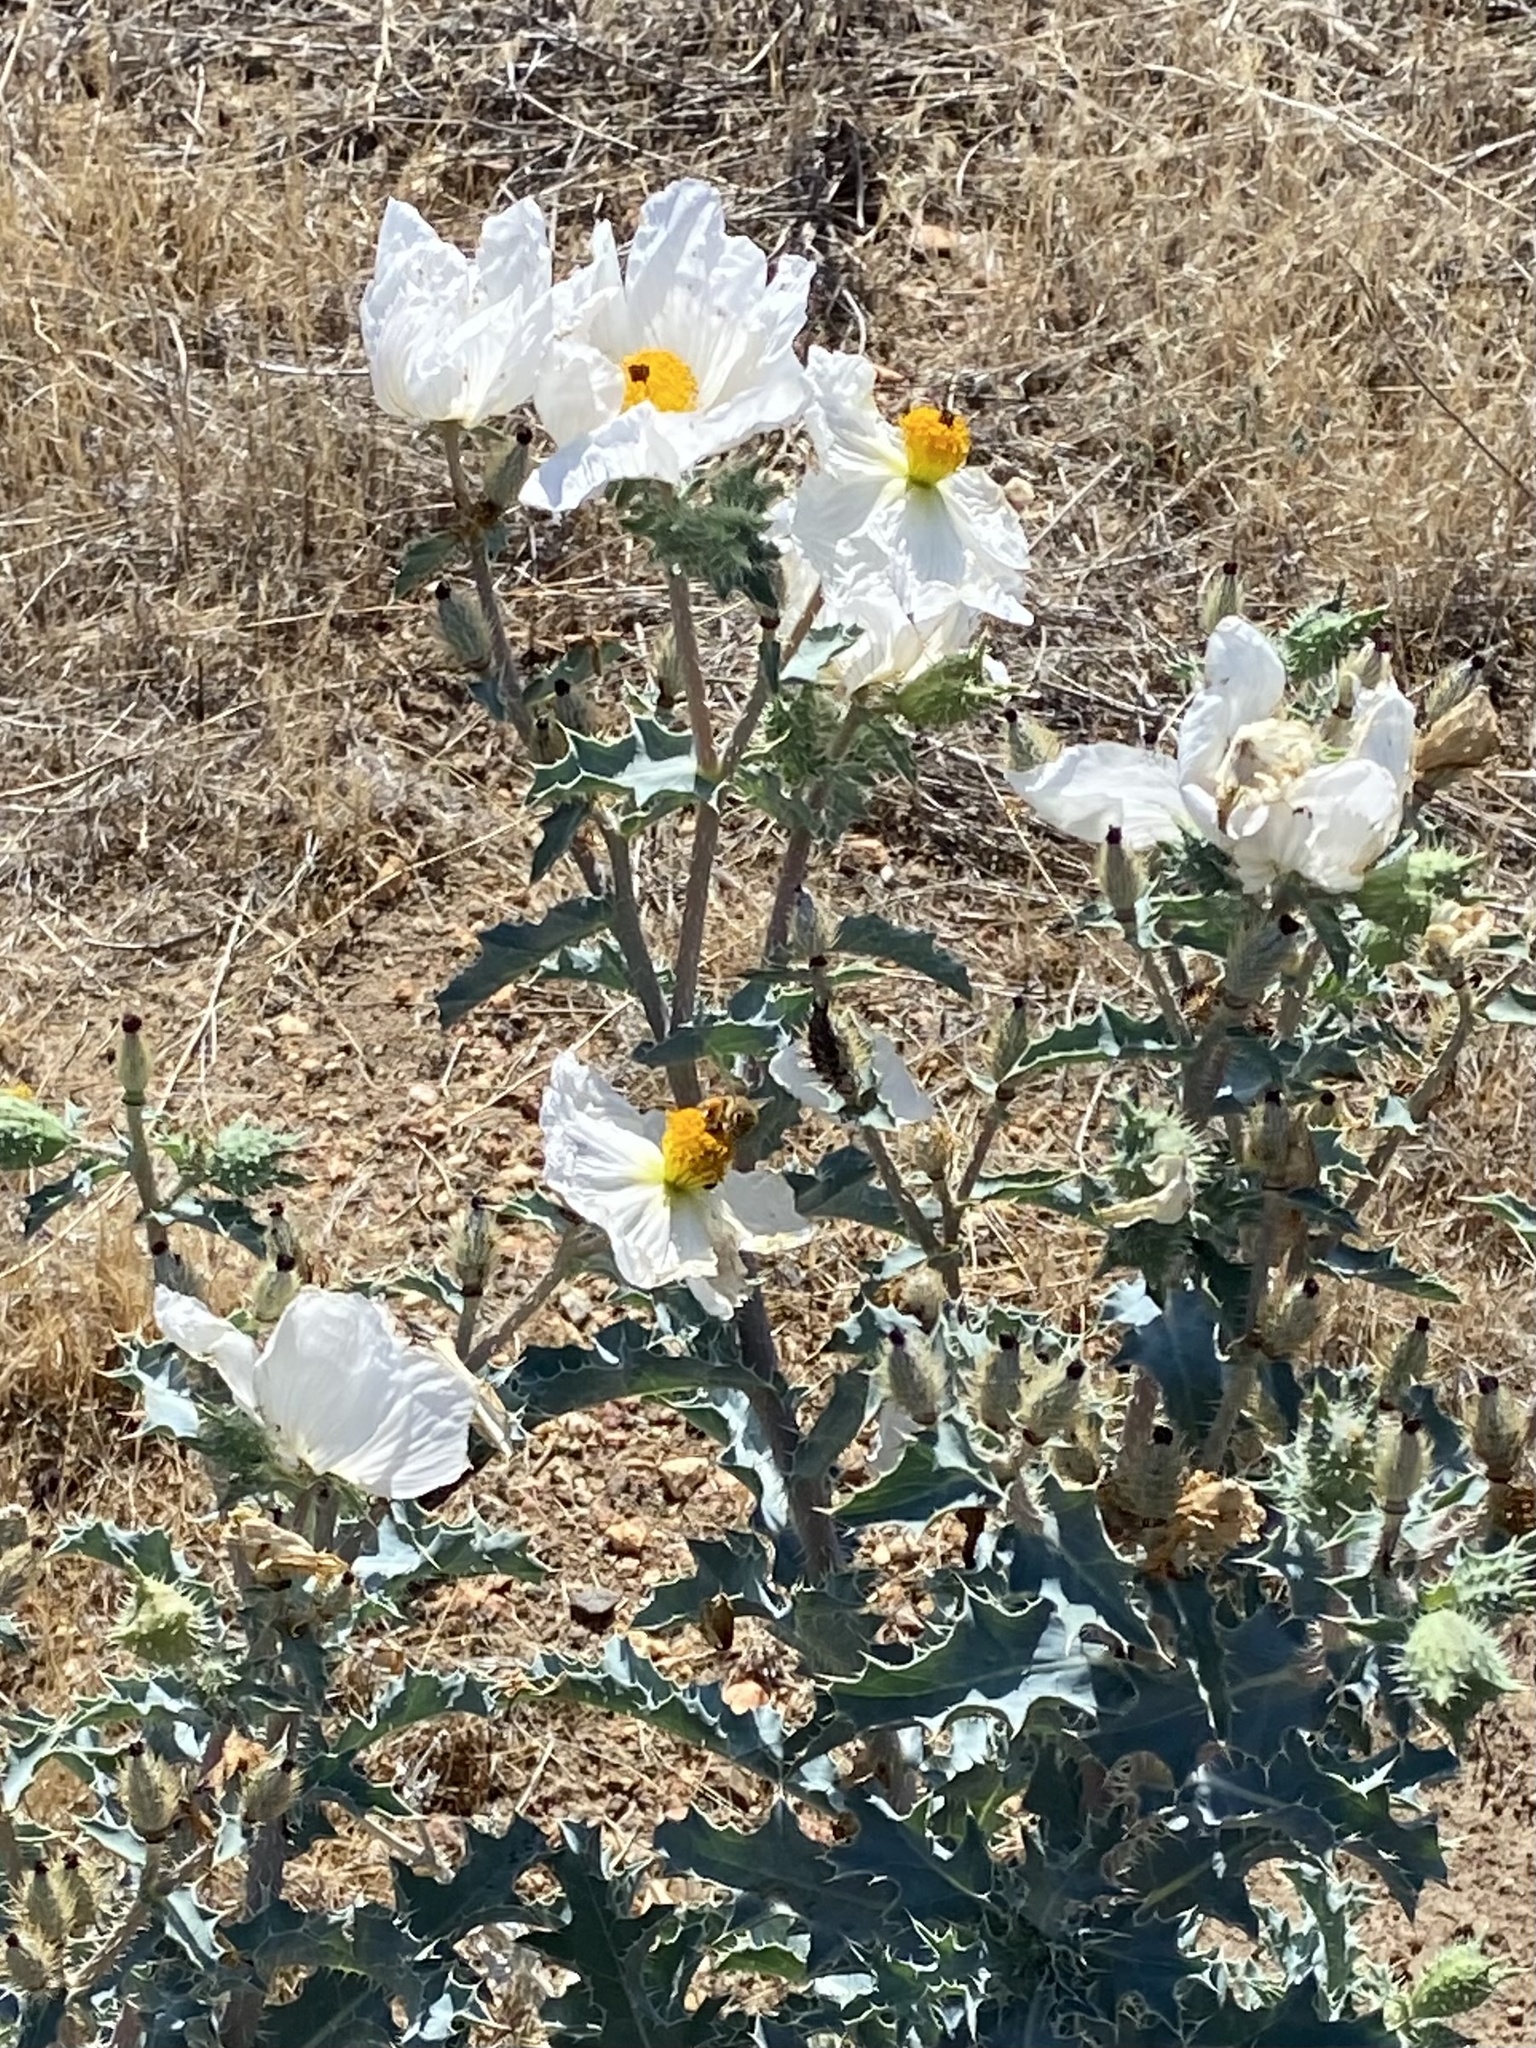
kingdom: Plantae
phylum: Tracheophyta
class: Magnoliopsida
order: Ranunculales
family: Papaveraceae
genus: Argemone
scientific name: Argemone munita
